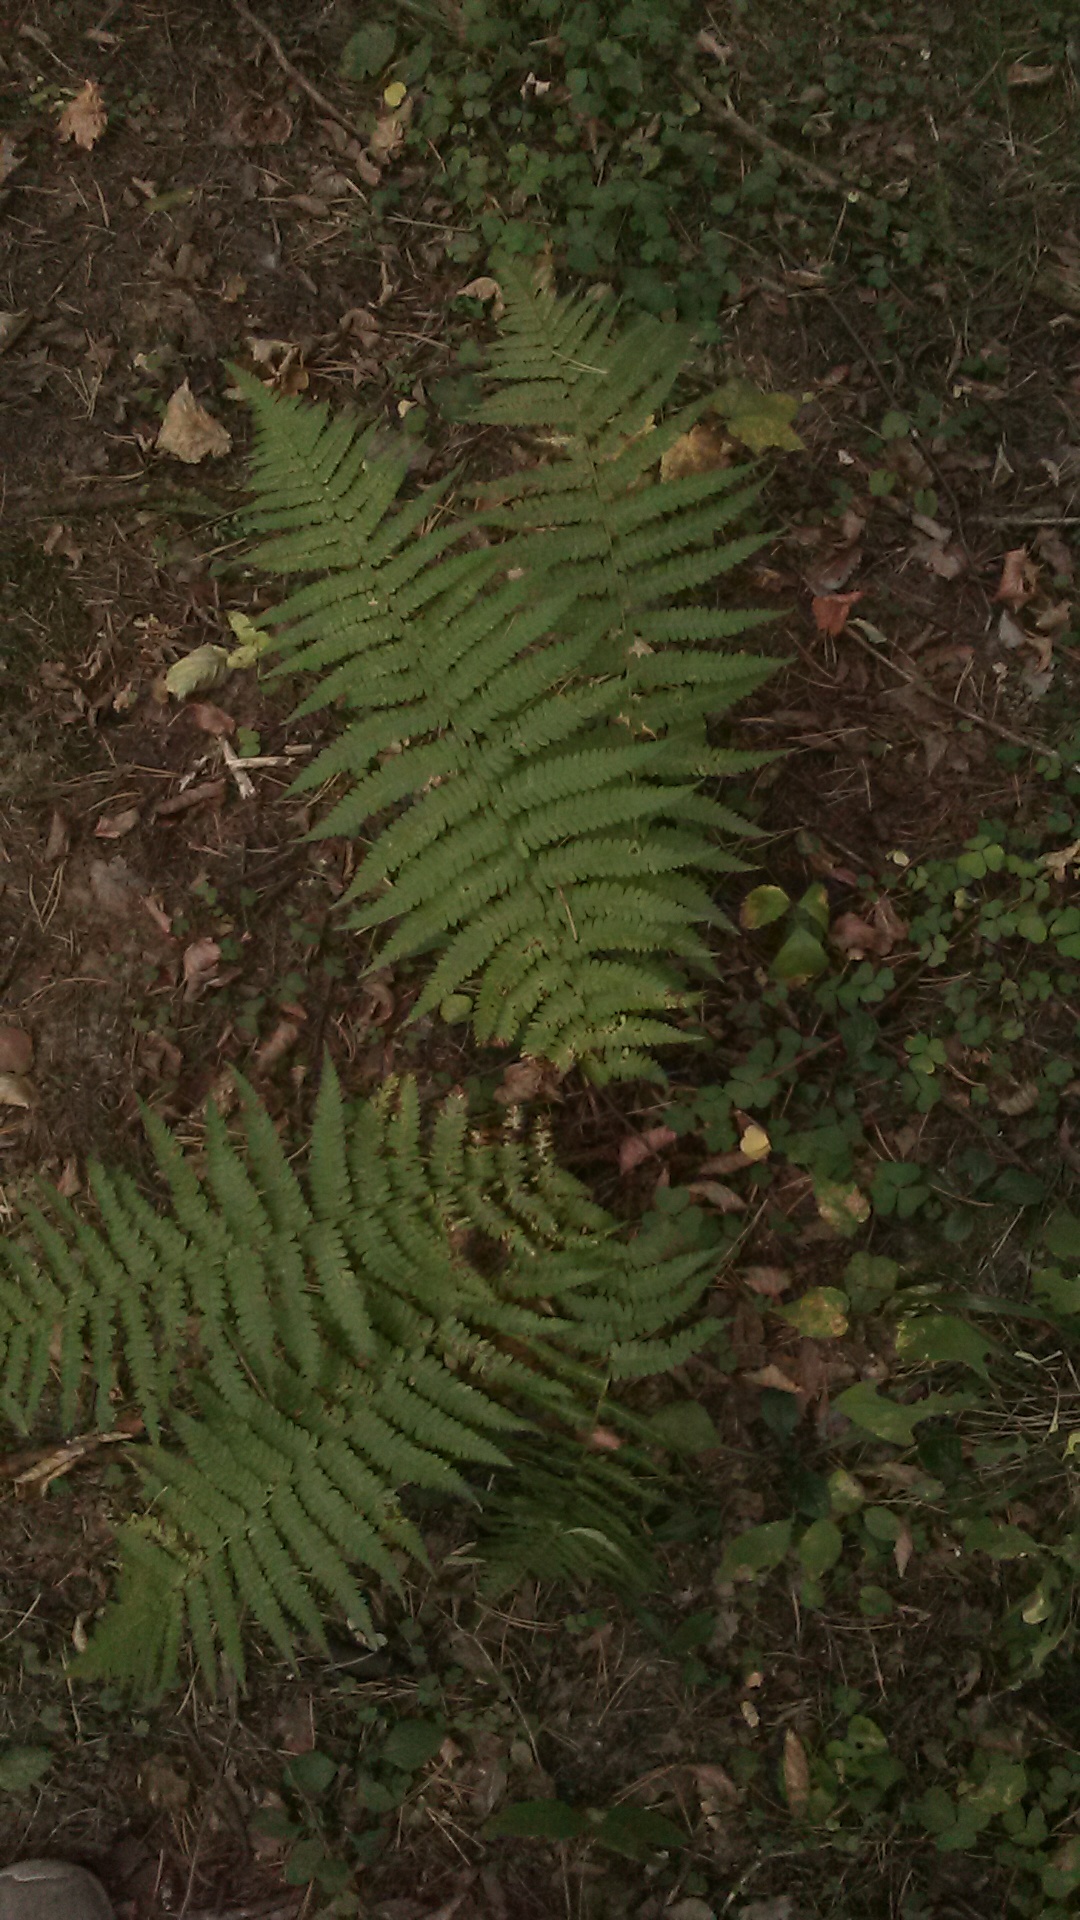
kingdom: Plantae
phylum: Tracheophyta
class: Polypodiopsida
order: Polypodiales
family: Dryopteridaceae
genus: Dryopteris
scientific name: Dryopteris filix-mas
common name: Male fern
